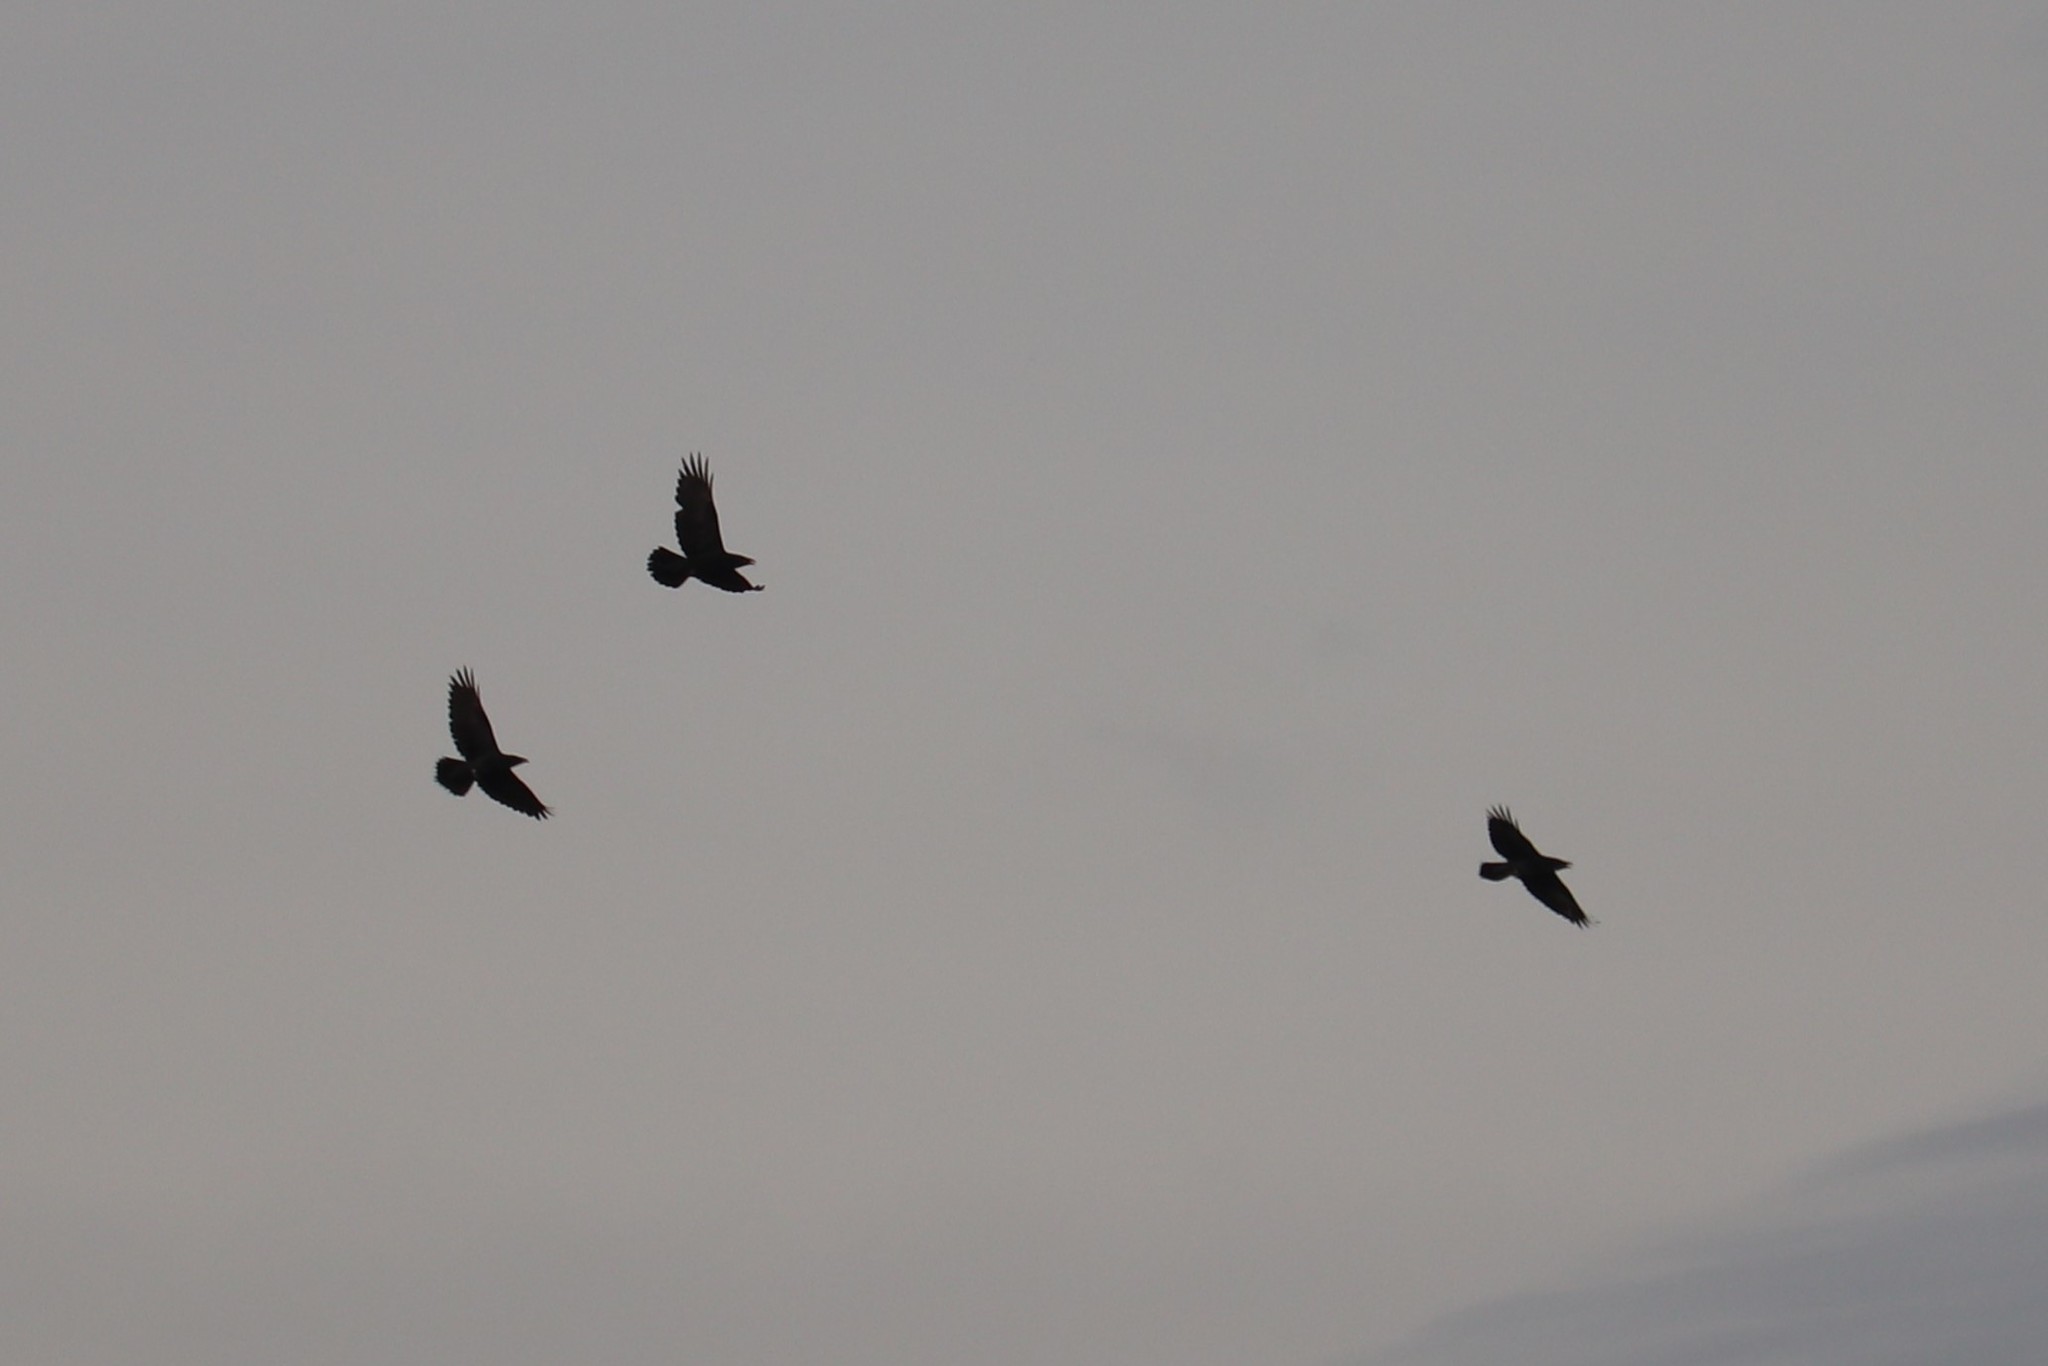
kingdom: Animalia
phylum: Chordata
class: Aves
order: Passeriformes
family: Corvidae
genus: Corvus
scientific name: Corvus corax
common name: Common raven
